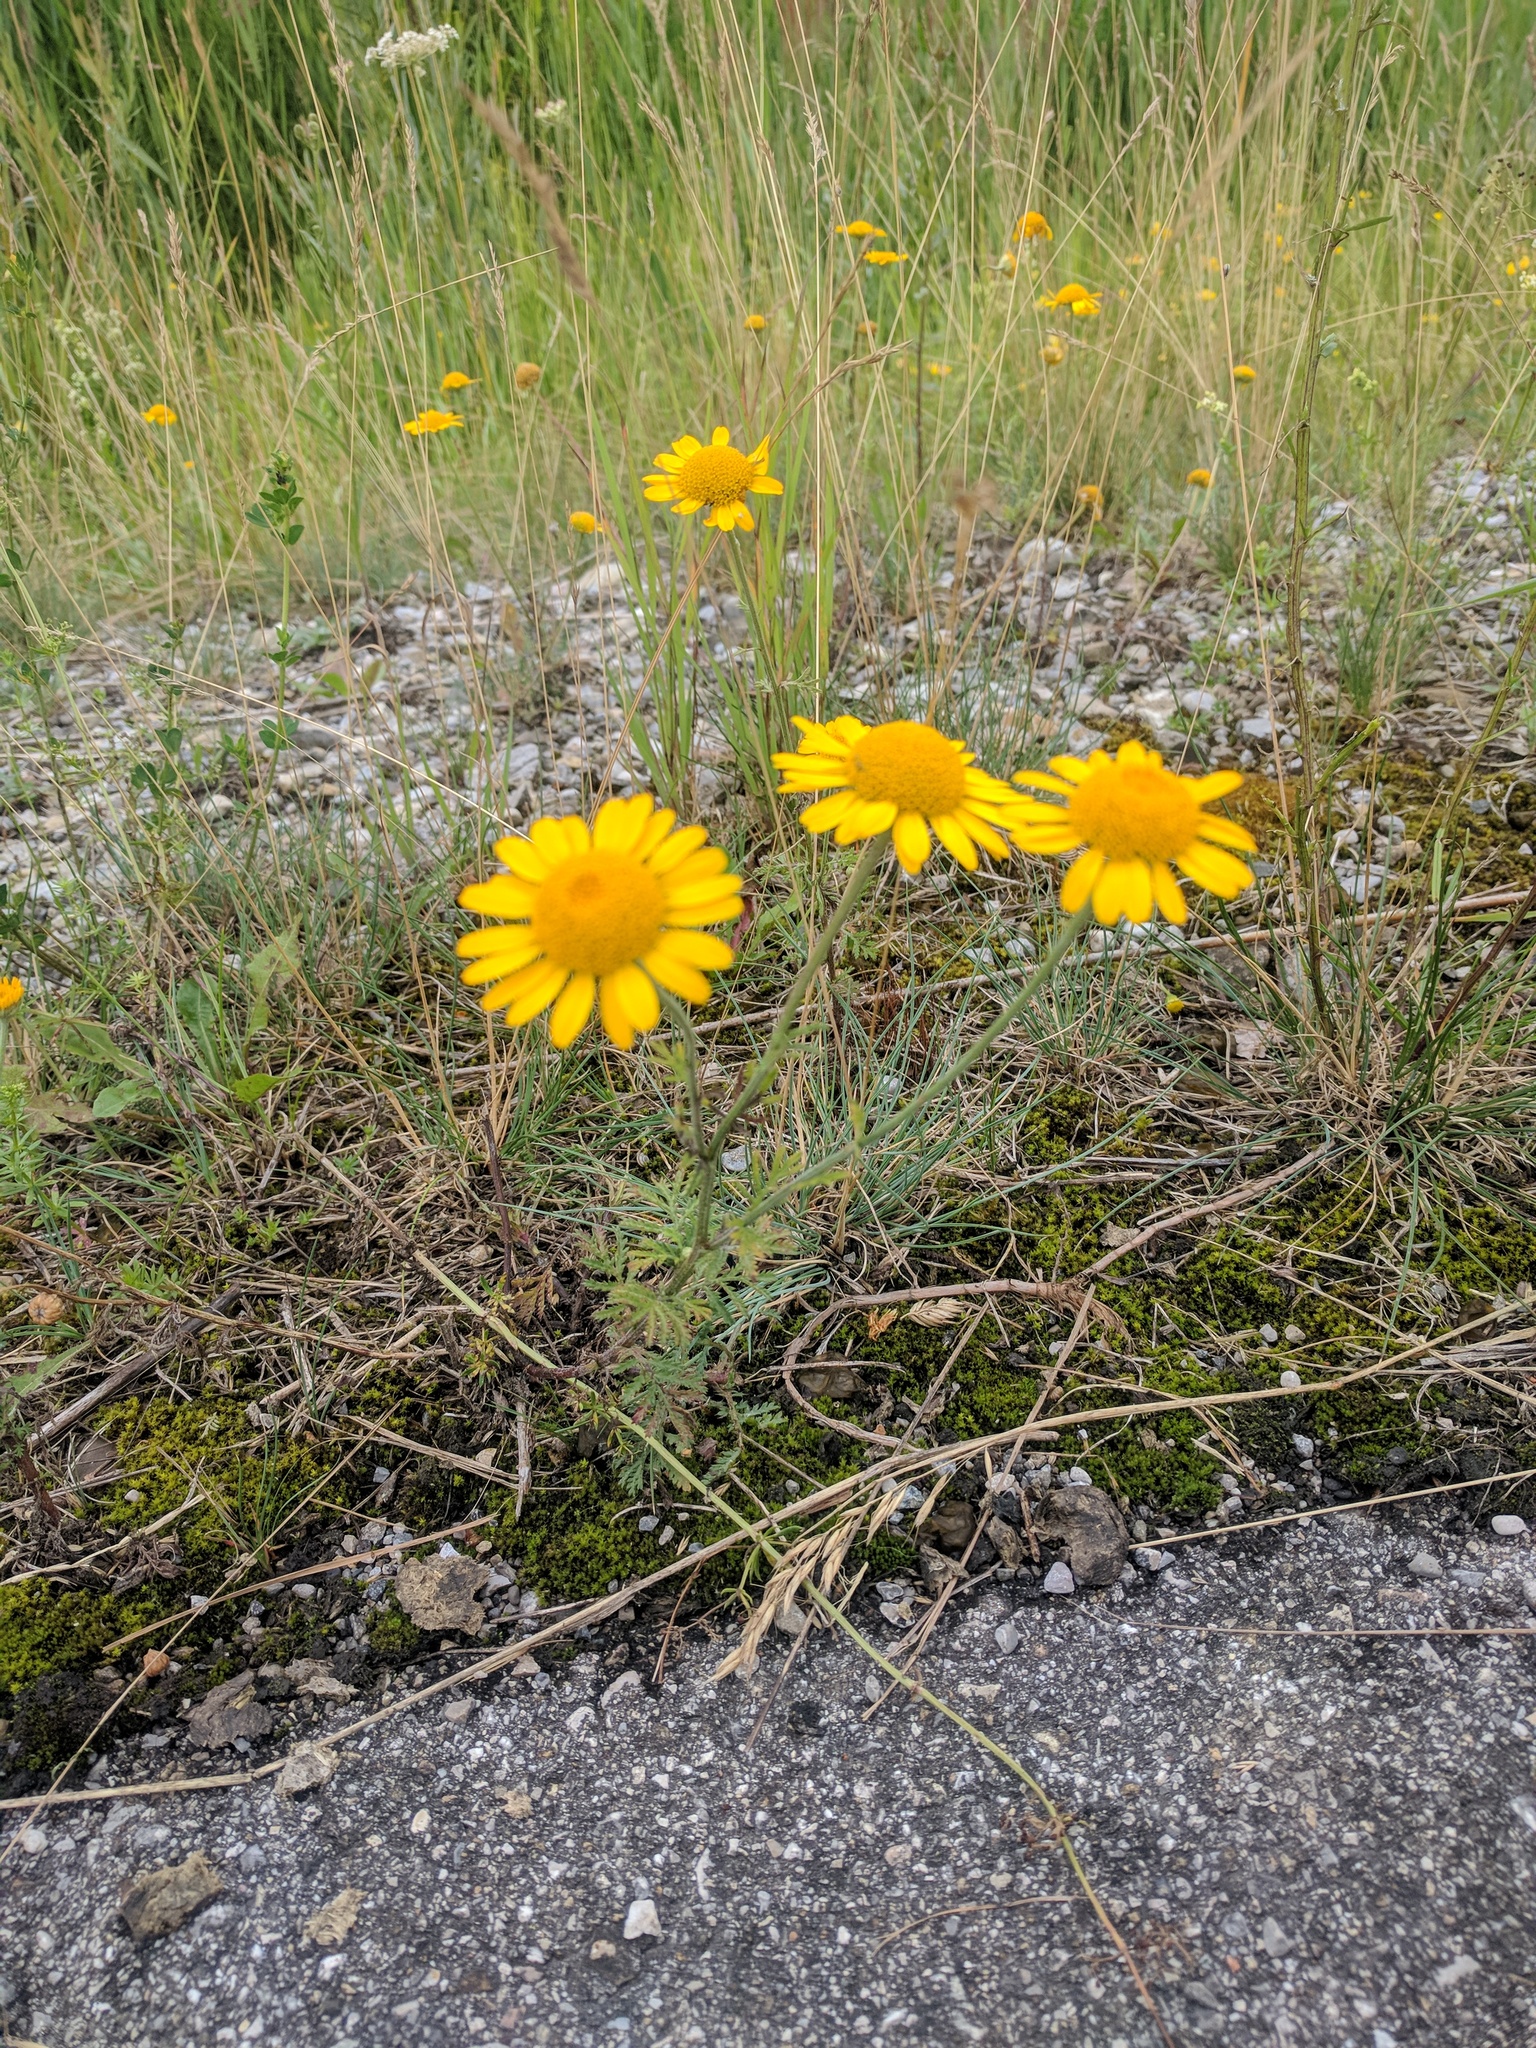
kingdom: Plantae
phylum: Tracheophyta
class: Magnoliopsida
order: Asterales
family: Asteraceae
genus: Cota
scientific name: Cota tinctoria
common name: Golden chamomile
